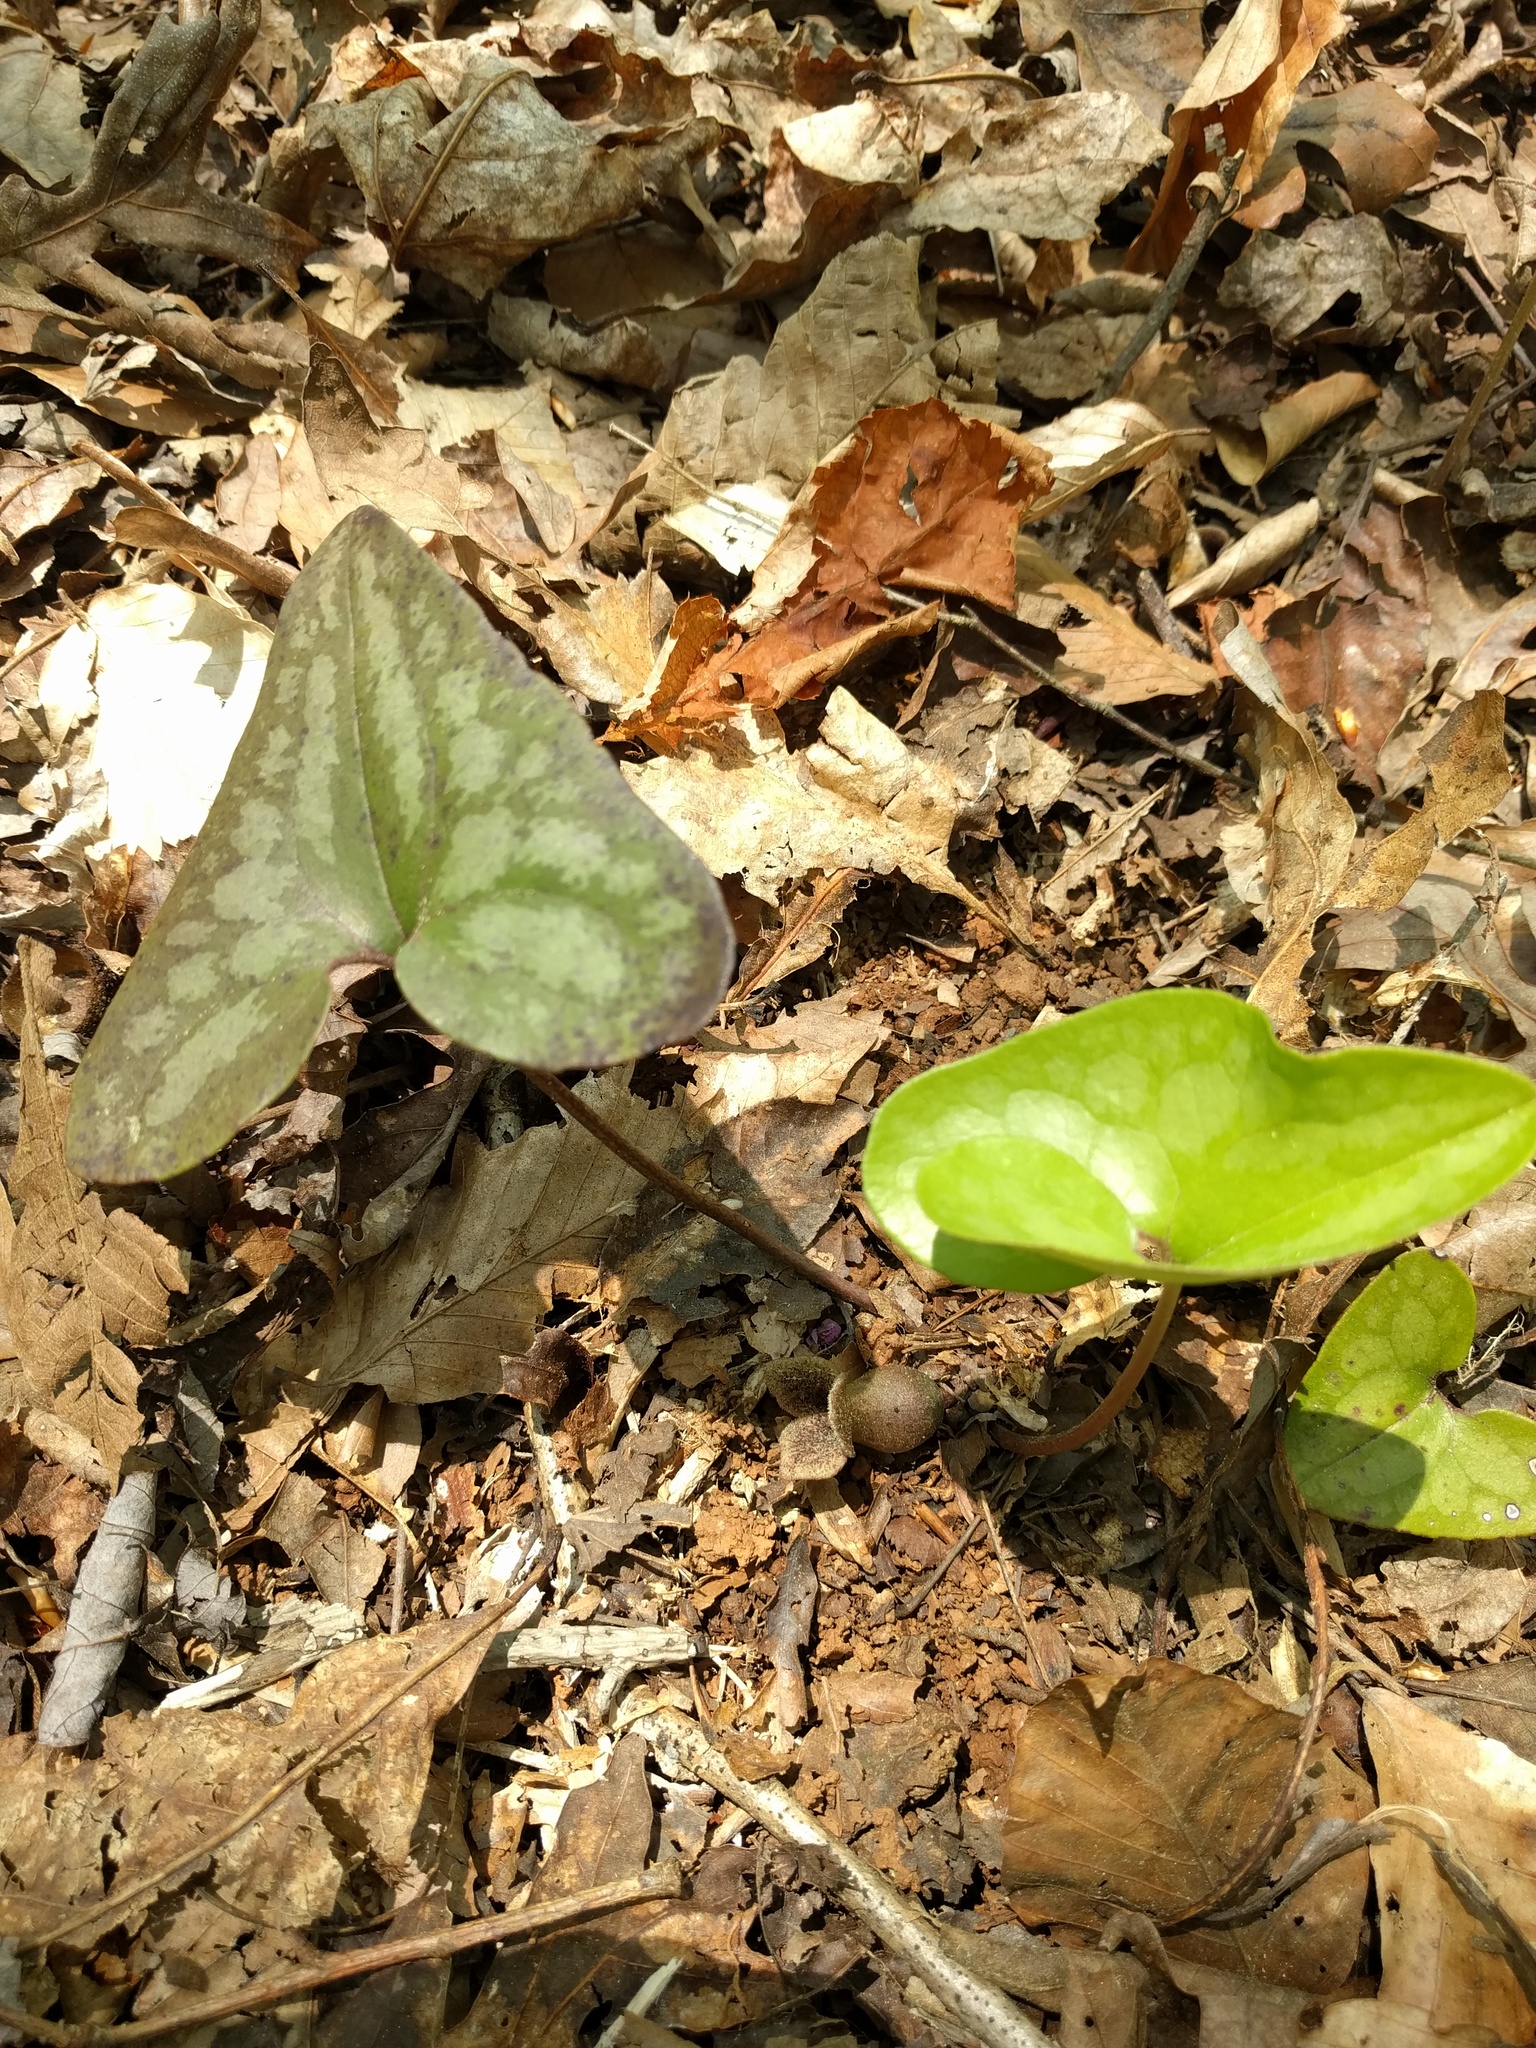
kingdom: Plantae
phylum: Tracheophyta
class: Magnoliopsida
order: Piperales
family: Aristolochiaceae
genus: Hexastylis
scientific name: Hexastylis arifolia
